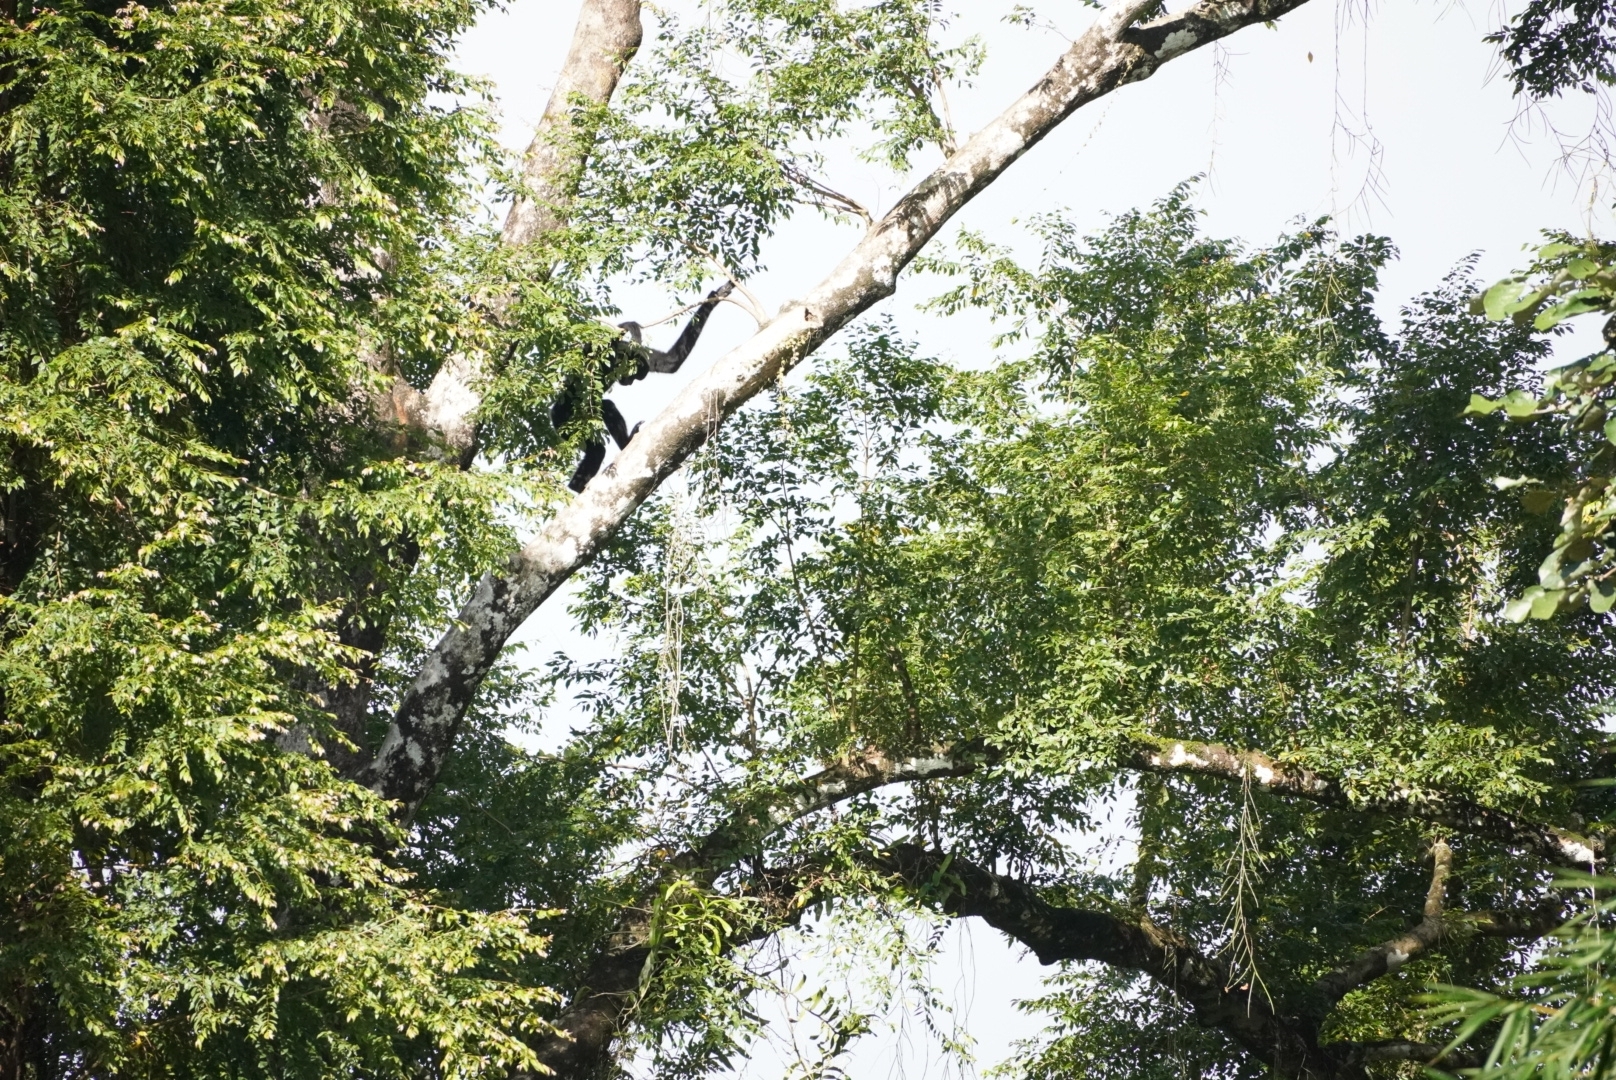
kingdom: Animalia
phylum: Chordata
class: Mammalia
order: Primates
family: Hylobatidae
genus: Nomascus
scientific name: Nomascus gabriellae
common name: Red-cheeked gibbon
